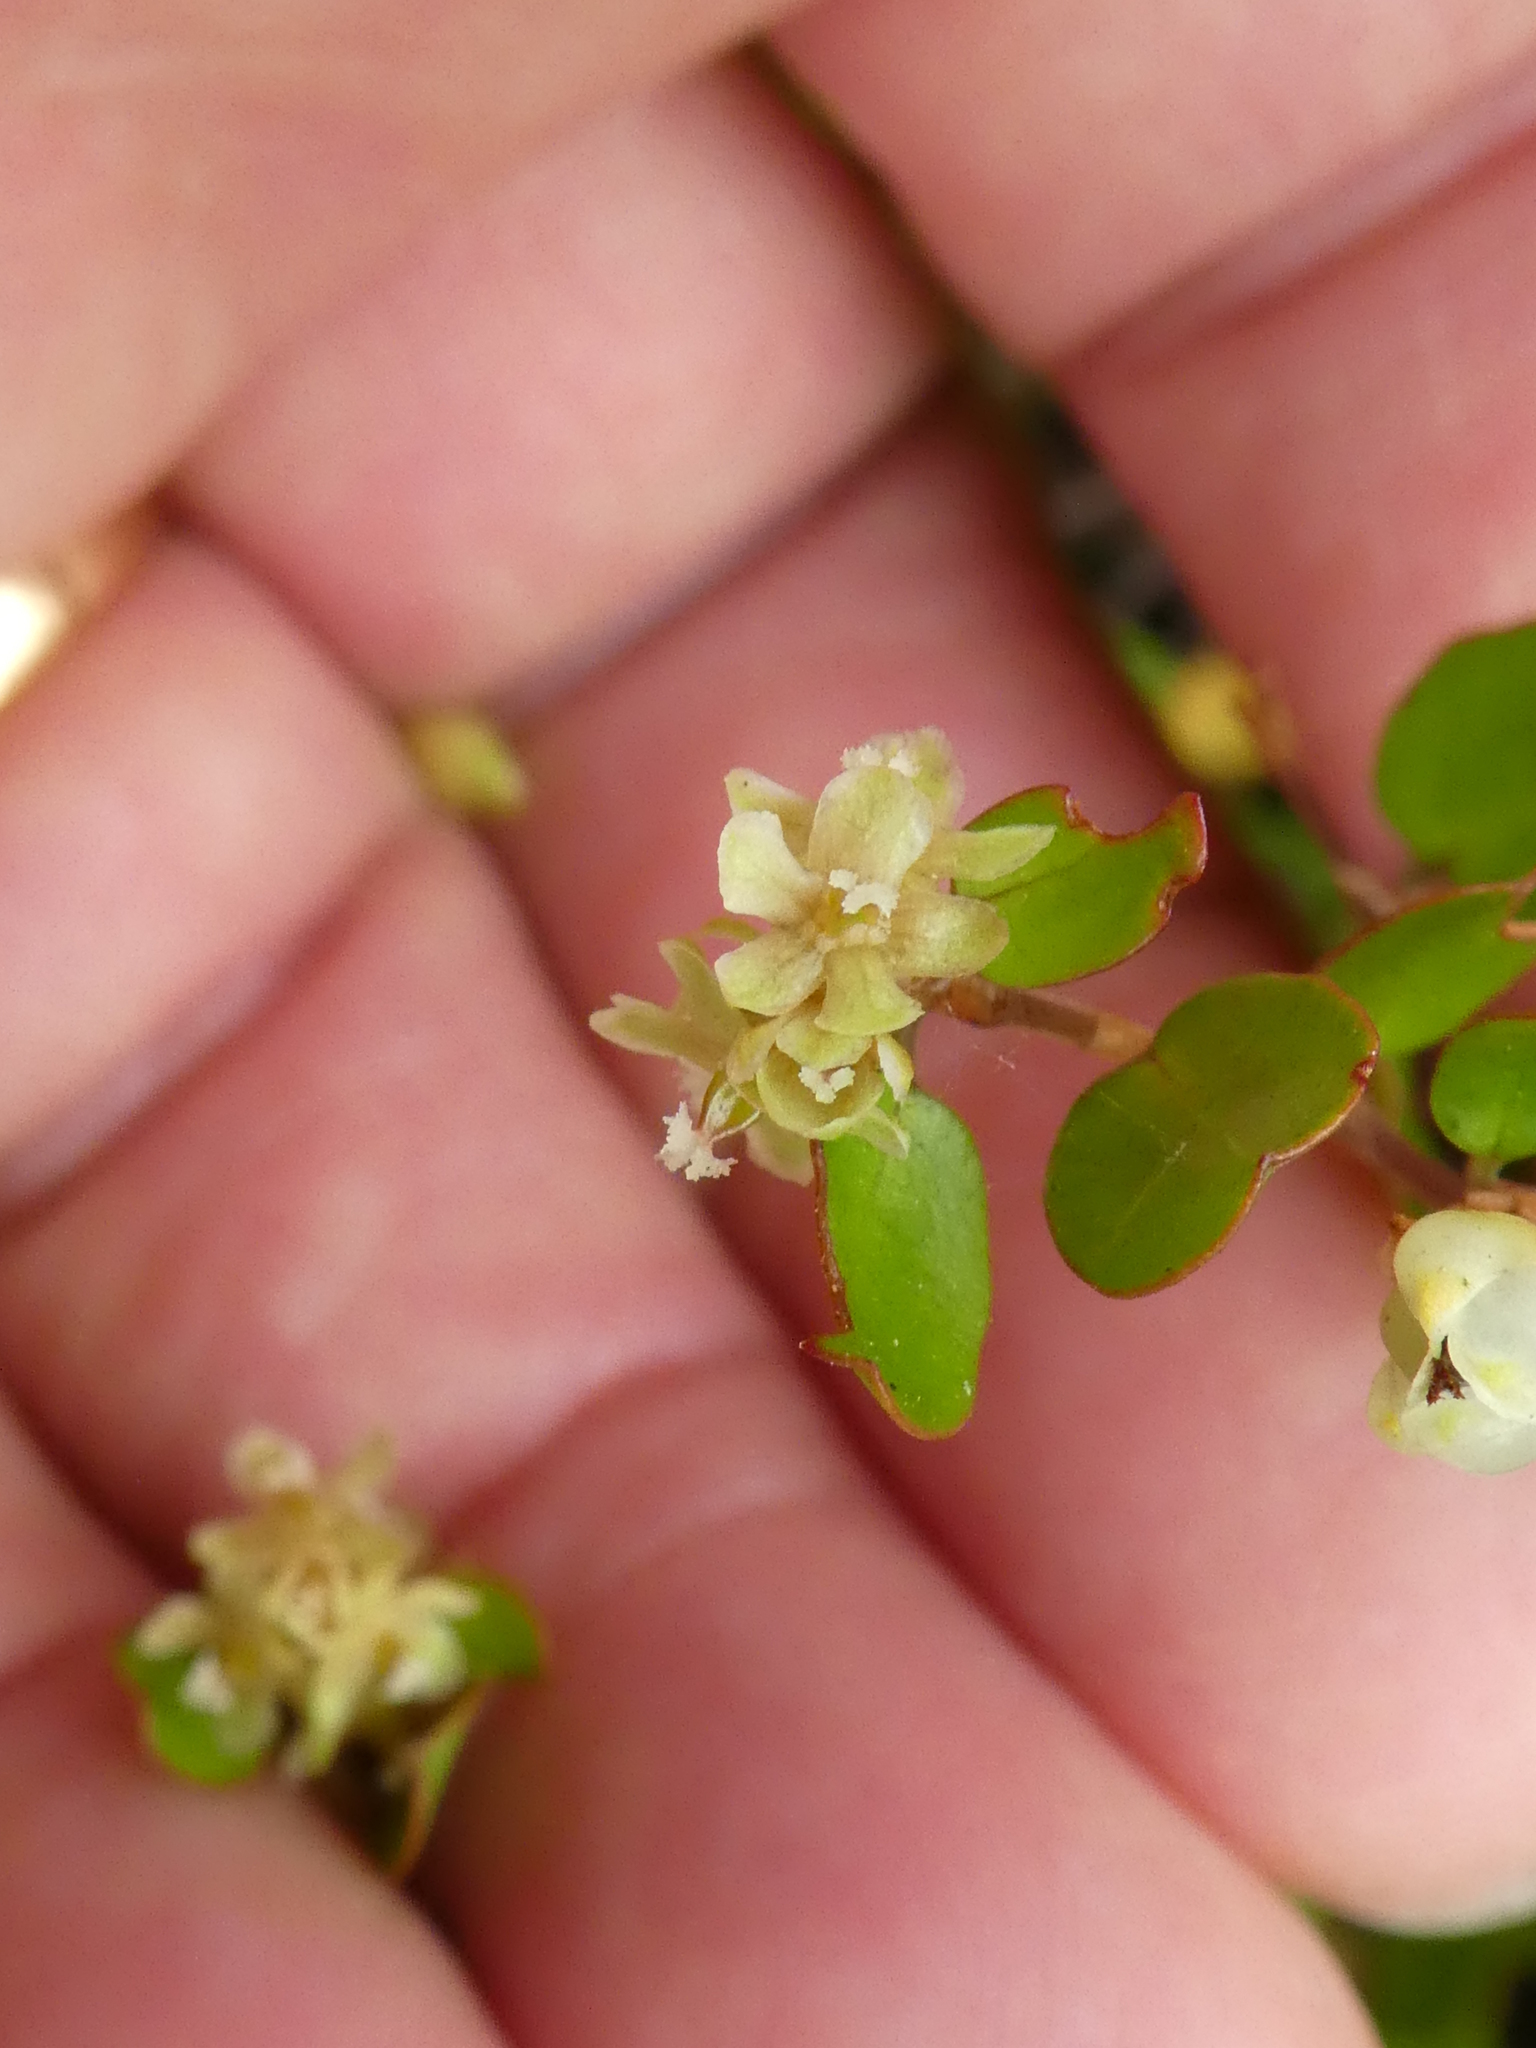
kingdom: Plantae
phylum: Tracheophyta
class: Magnoliopsida
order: Caryophyllales
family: Polygonaceae
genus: Muehlenbeckia
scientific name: Muehlenbeckia axillaris
